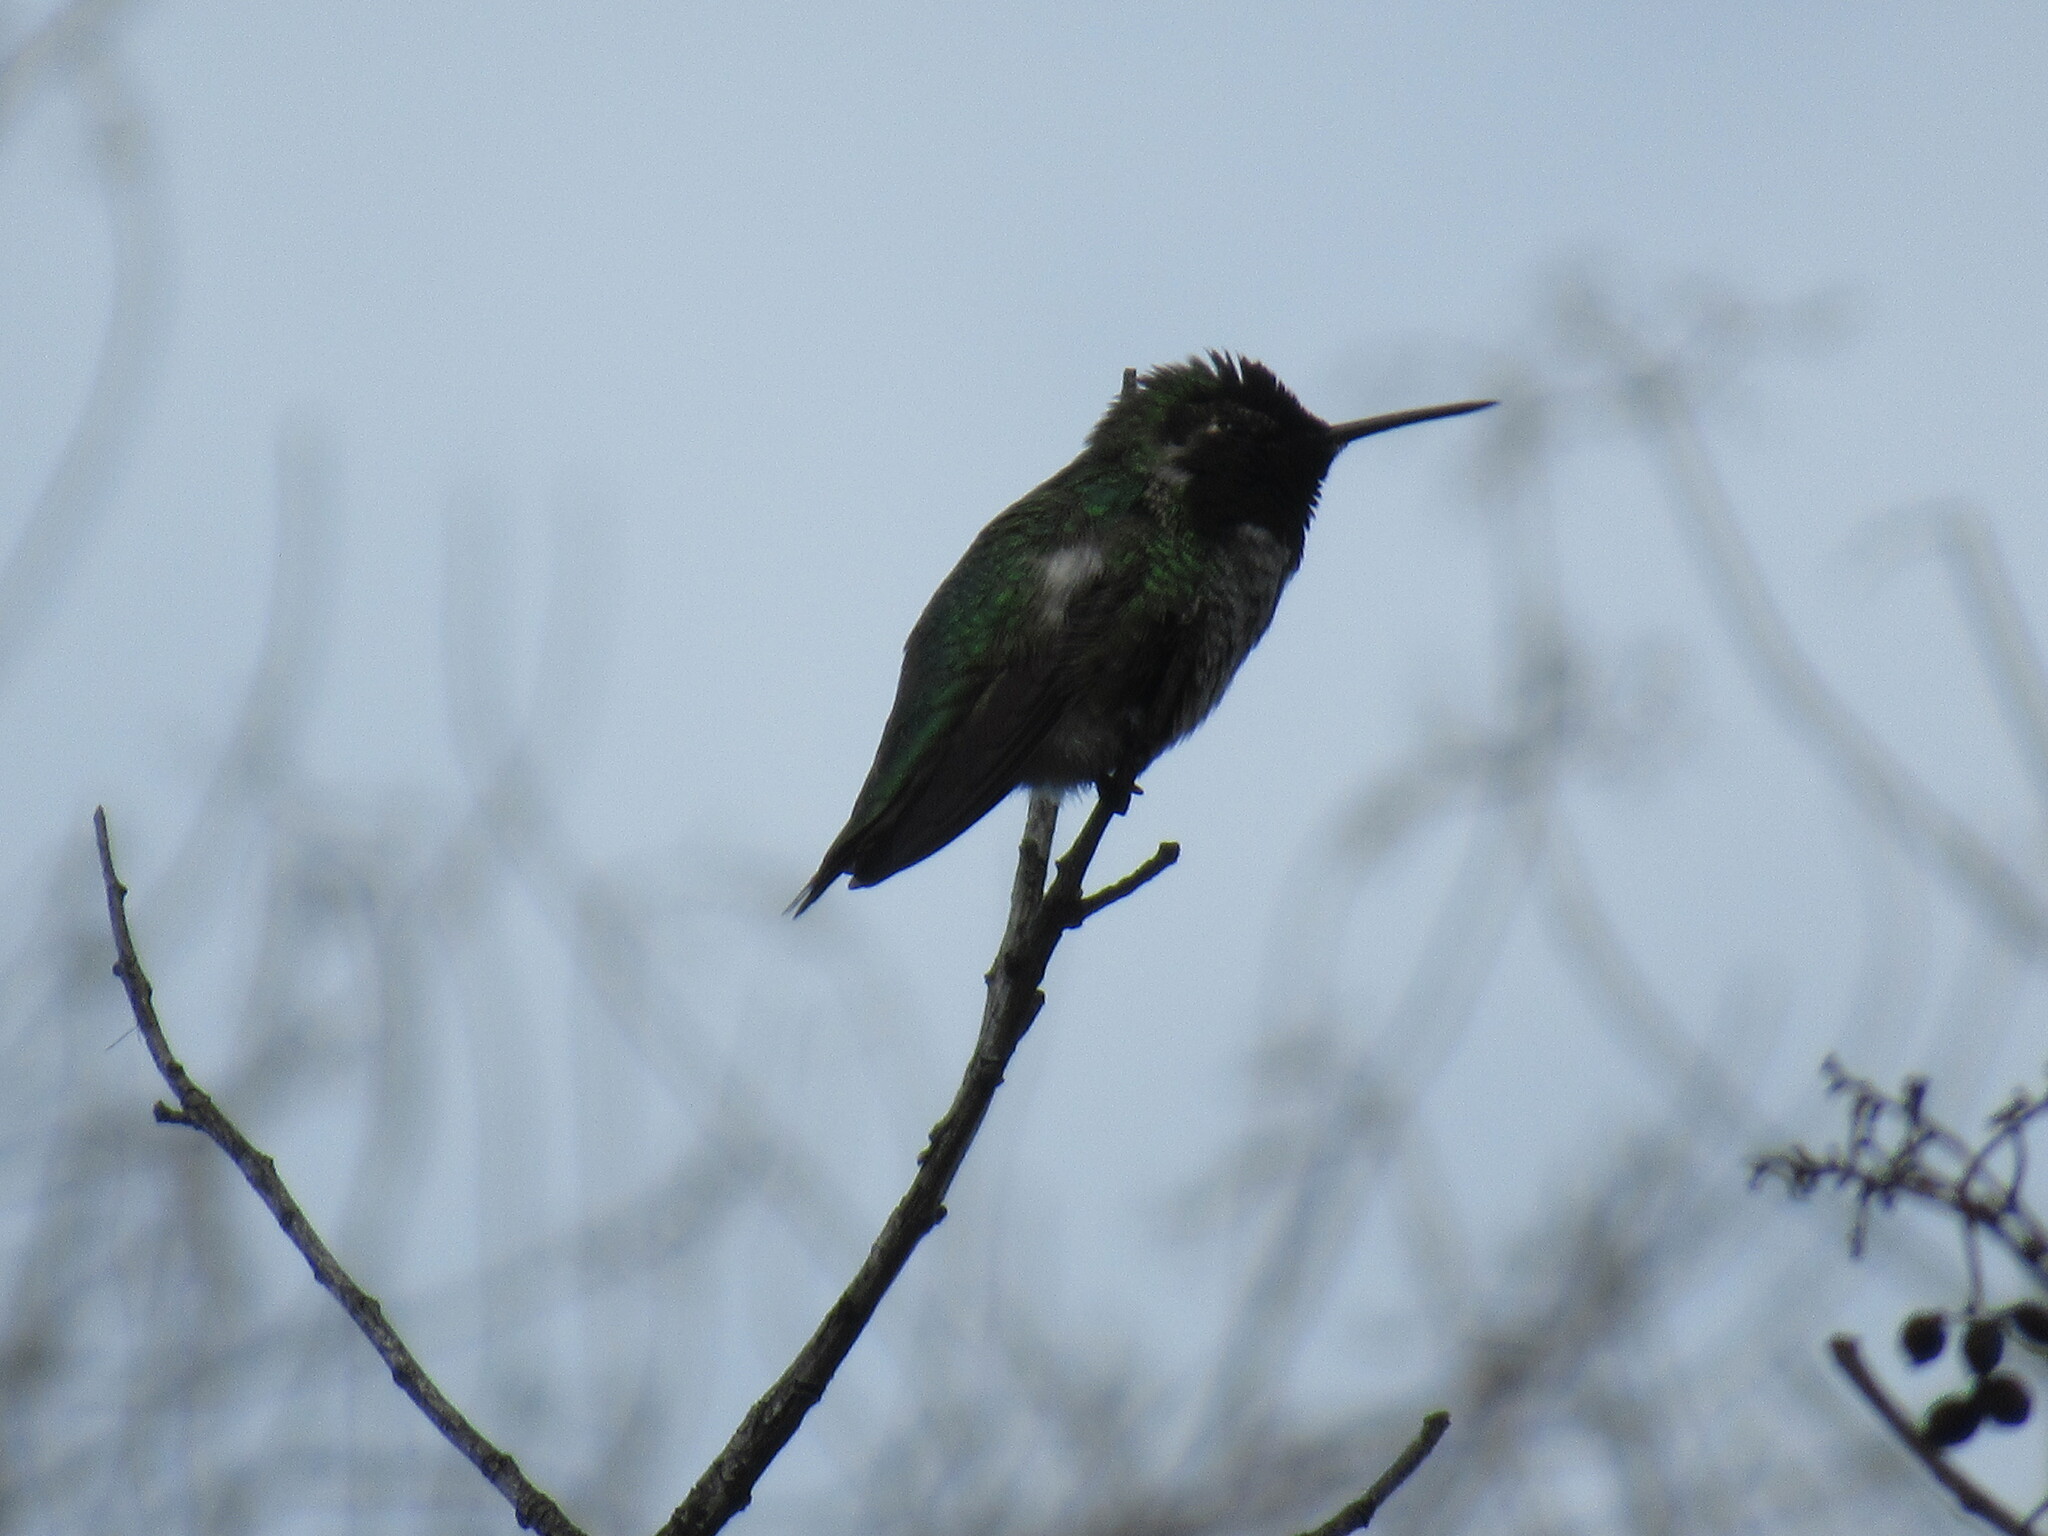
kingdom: Animalia
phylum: Chordata
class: Aves
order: Apodiformes
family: Trochilidae
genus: Calypte
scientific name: Calypte anna
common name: Anna's hummingbird
